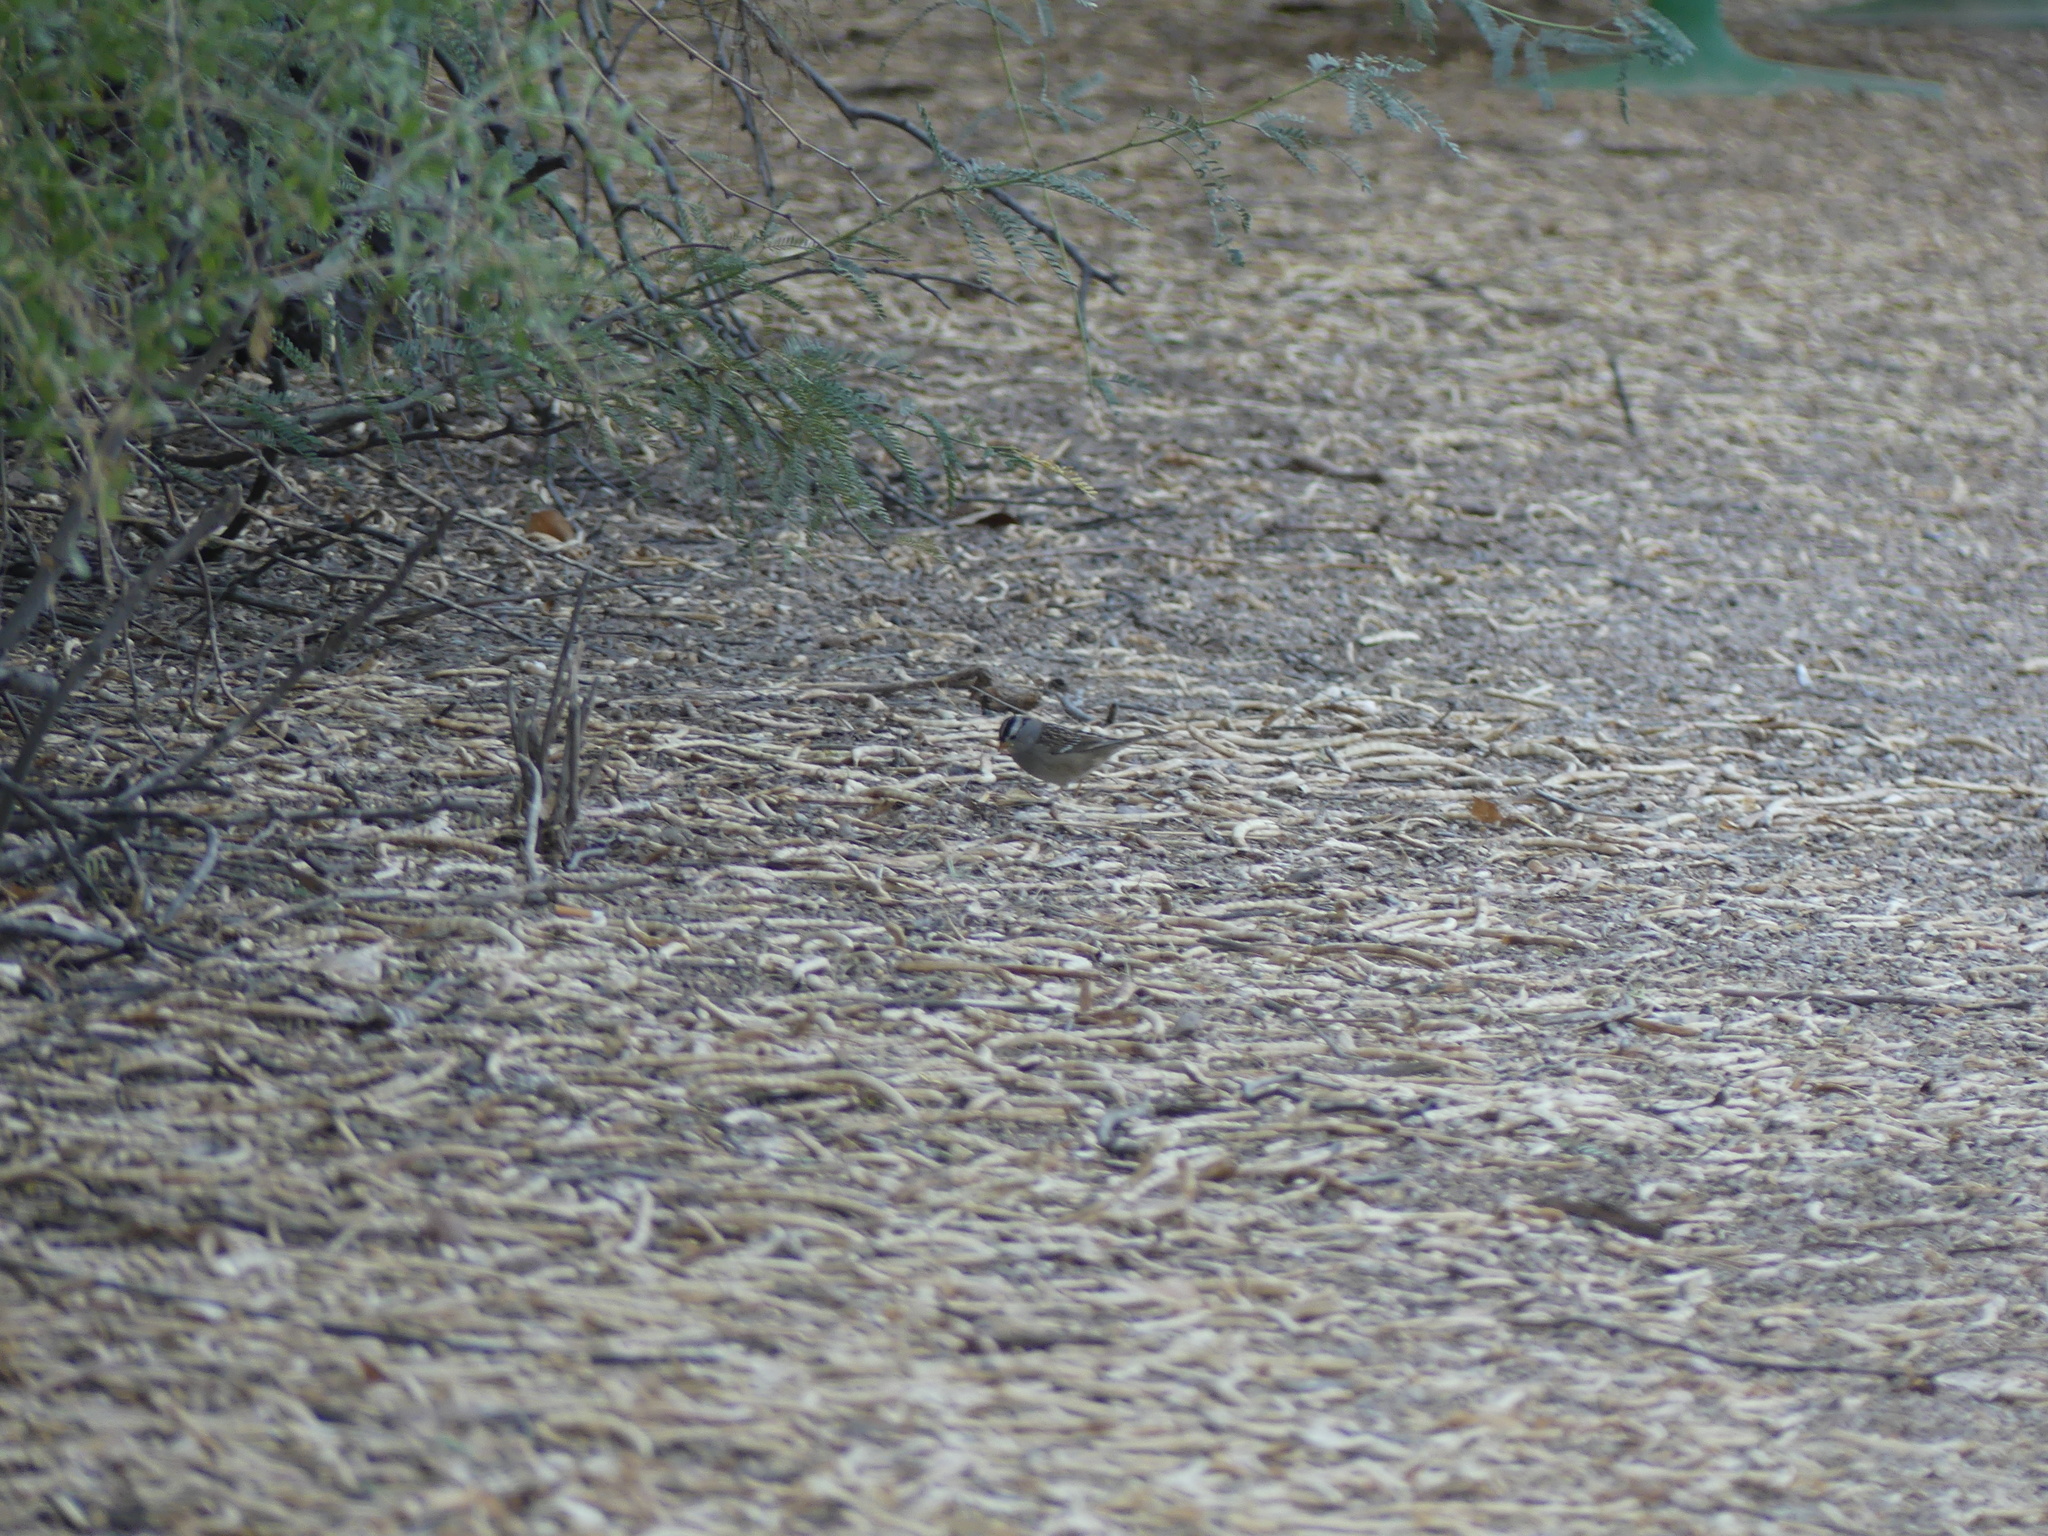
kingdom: Animalia
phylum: Chordata
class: Aves
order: Passeriformes
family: Passerellidae
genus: Zonotrichia
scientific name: Zonotrichia leucophrys
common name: White-crowned sparrow
